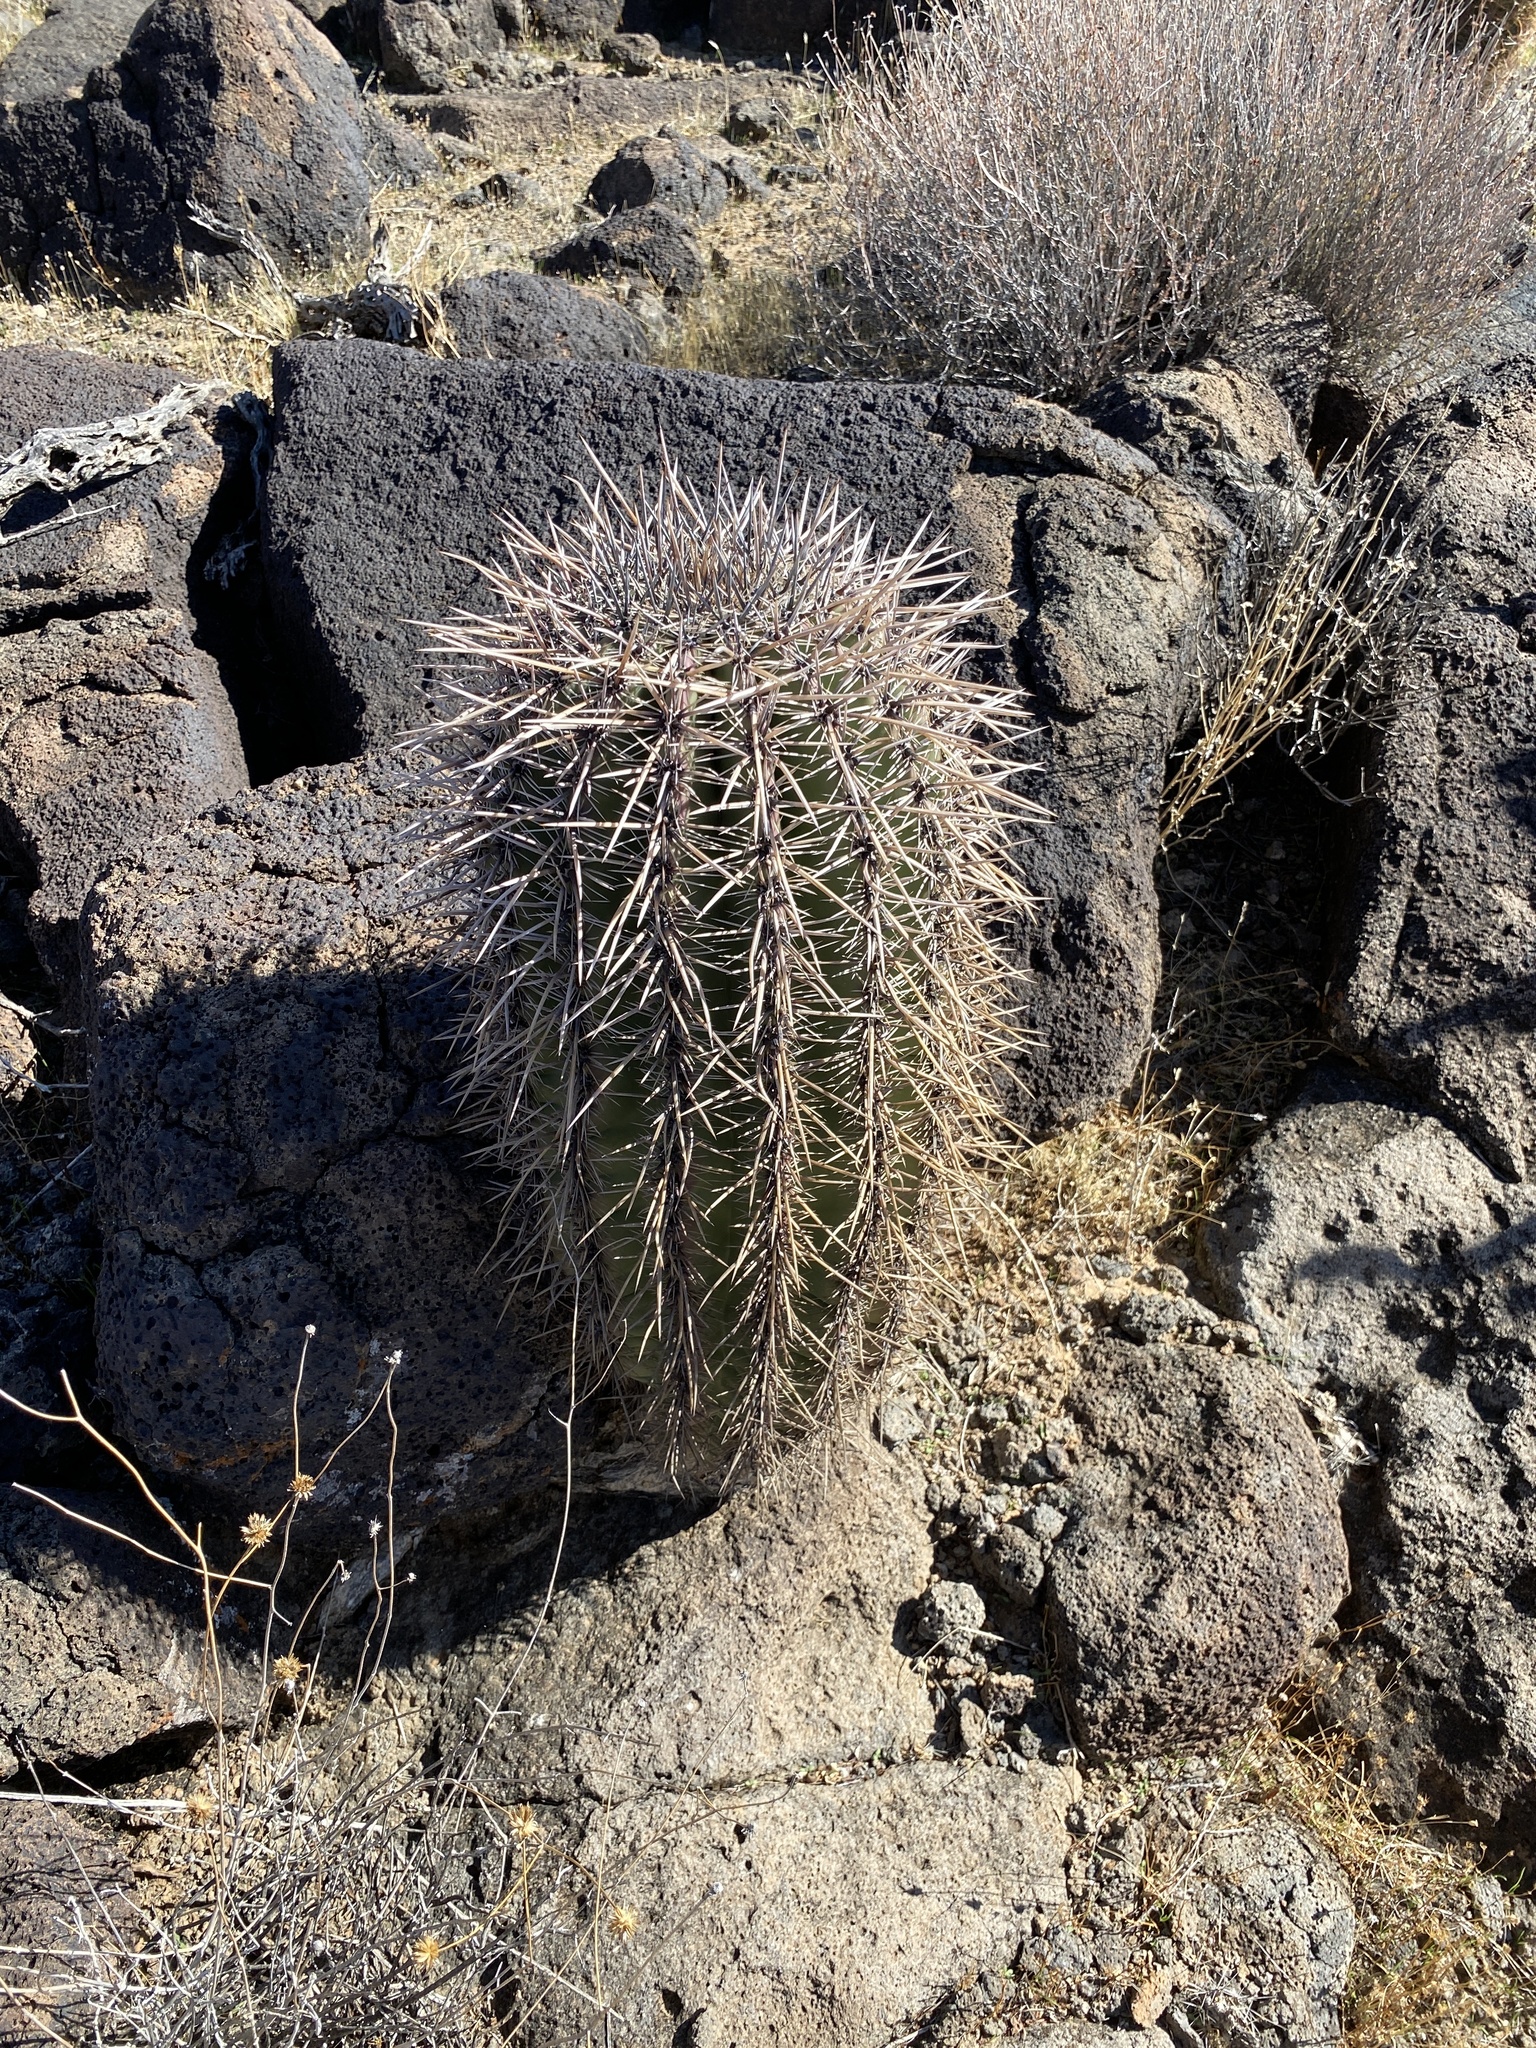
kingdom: Plantae
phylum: Tracheophyta
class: Magnoliopsida
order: Caryophyllales
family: Cactaceae
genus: Carnegiea
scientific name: Carnegiea gigantea
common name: Saguaro
